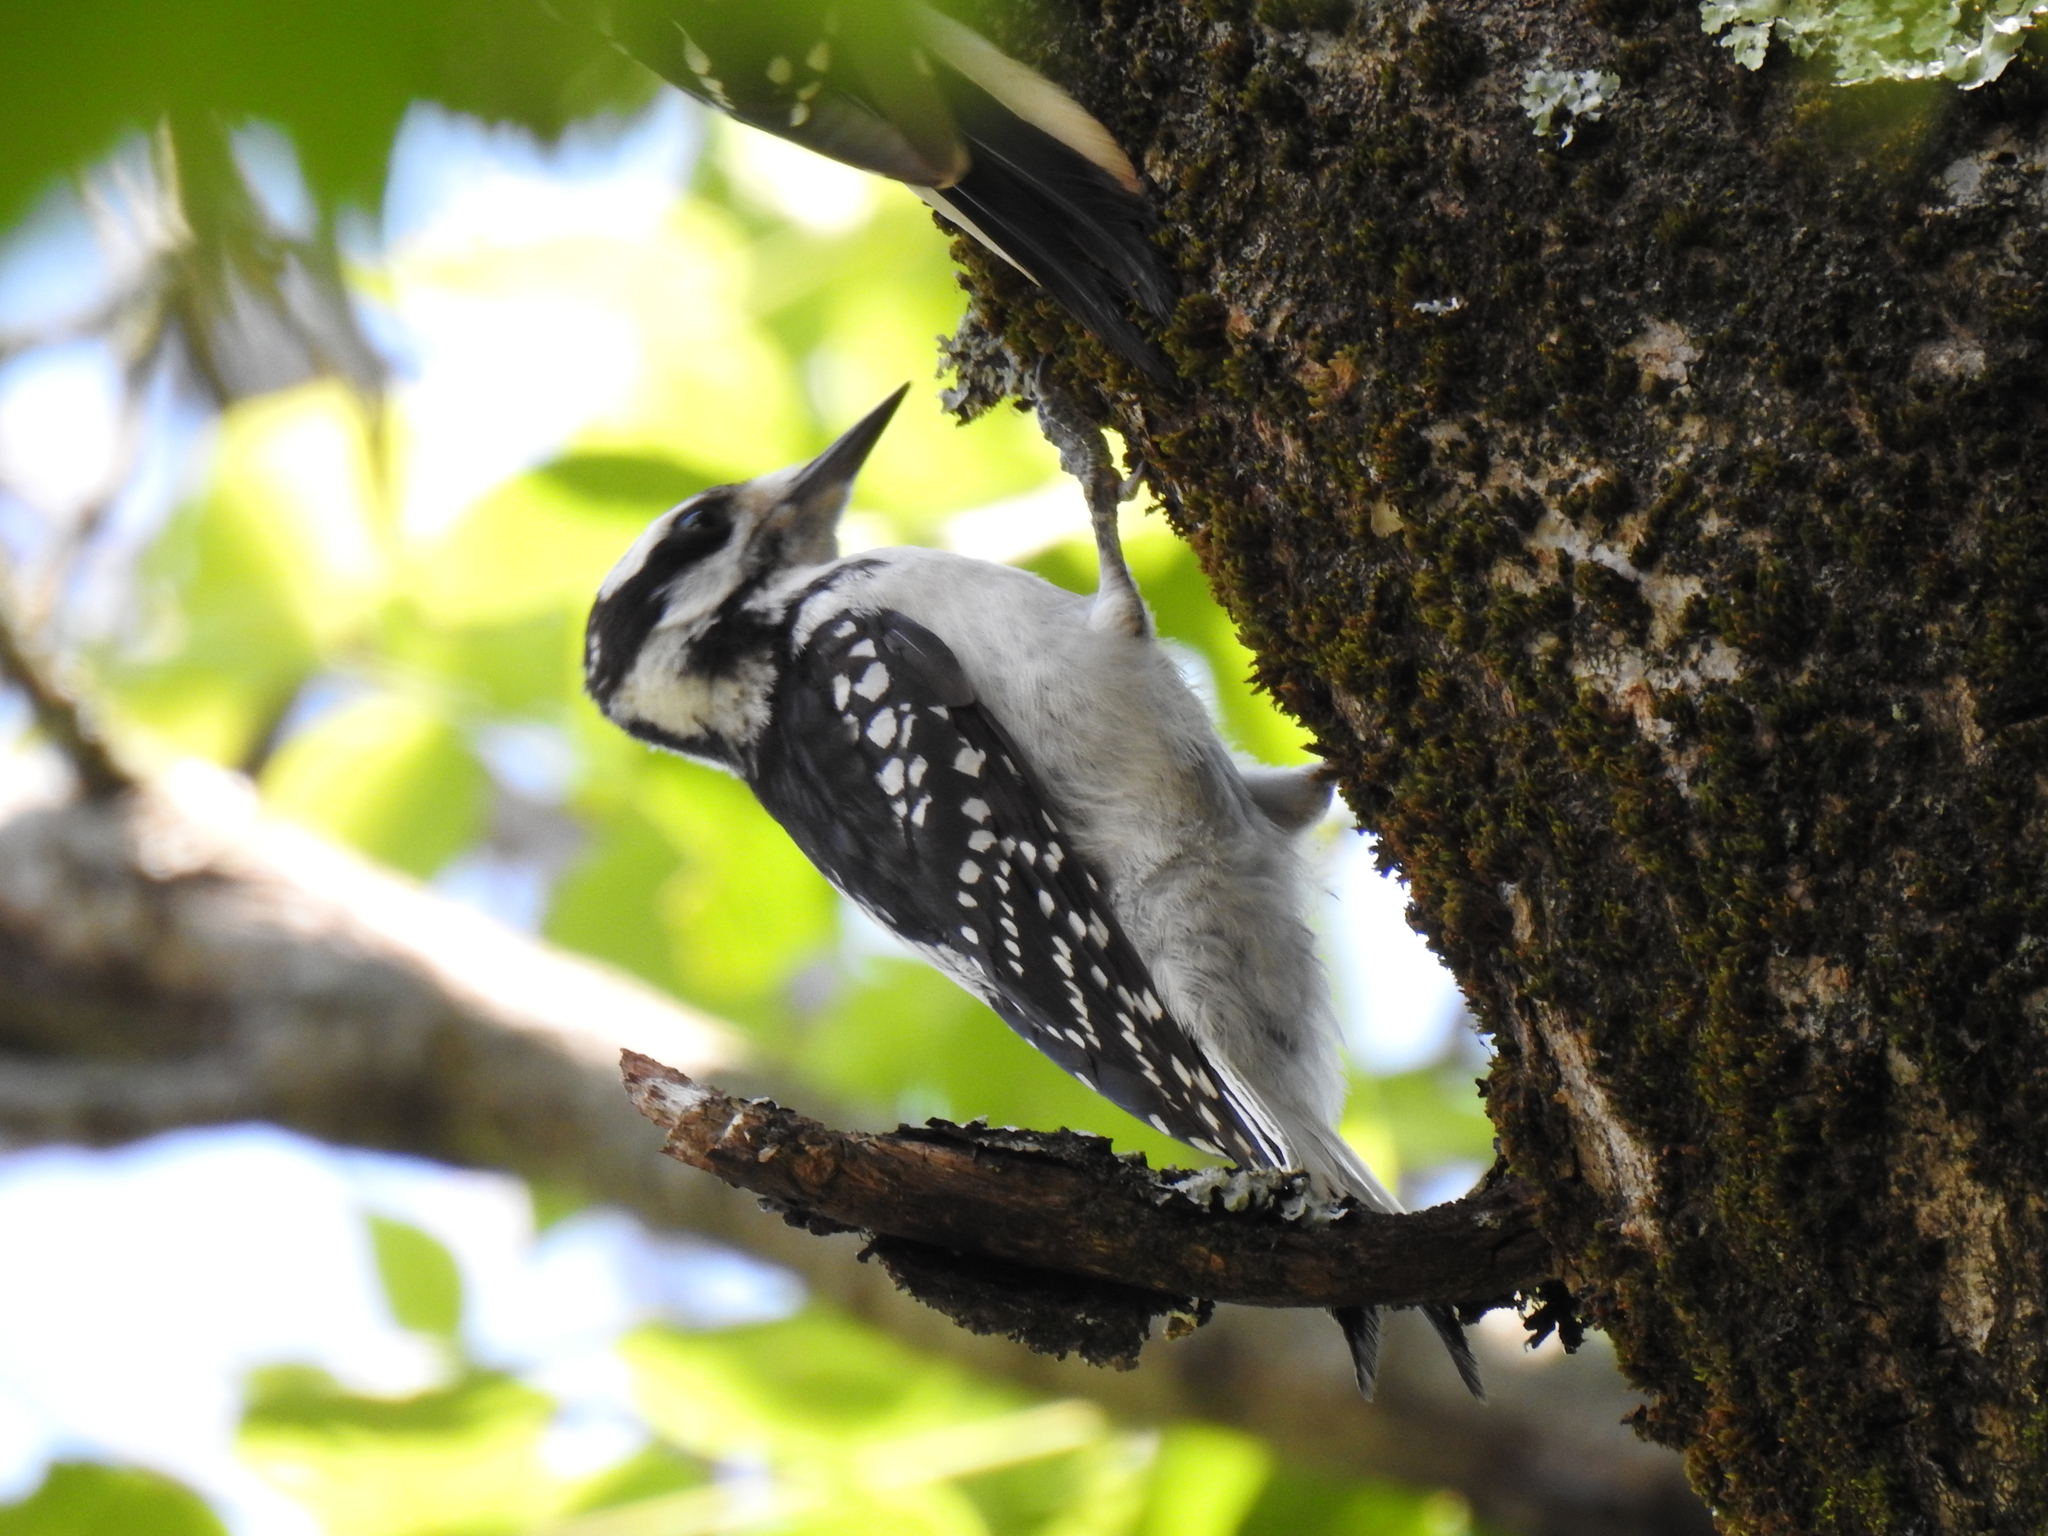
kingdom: Animalia
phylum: Chordata
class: Aves
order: Piciformes
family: Picidae
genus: Leuconotopicus
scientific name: Leuconotopicus villosus
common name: Hairy woodpecker
